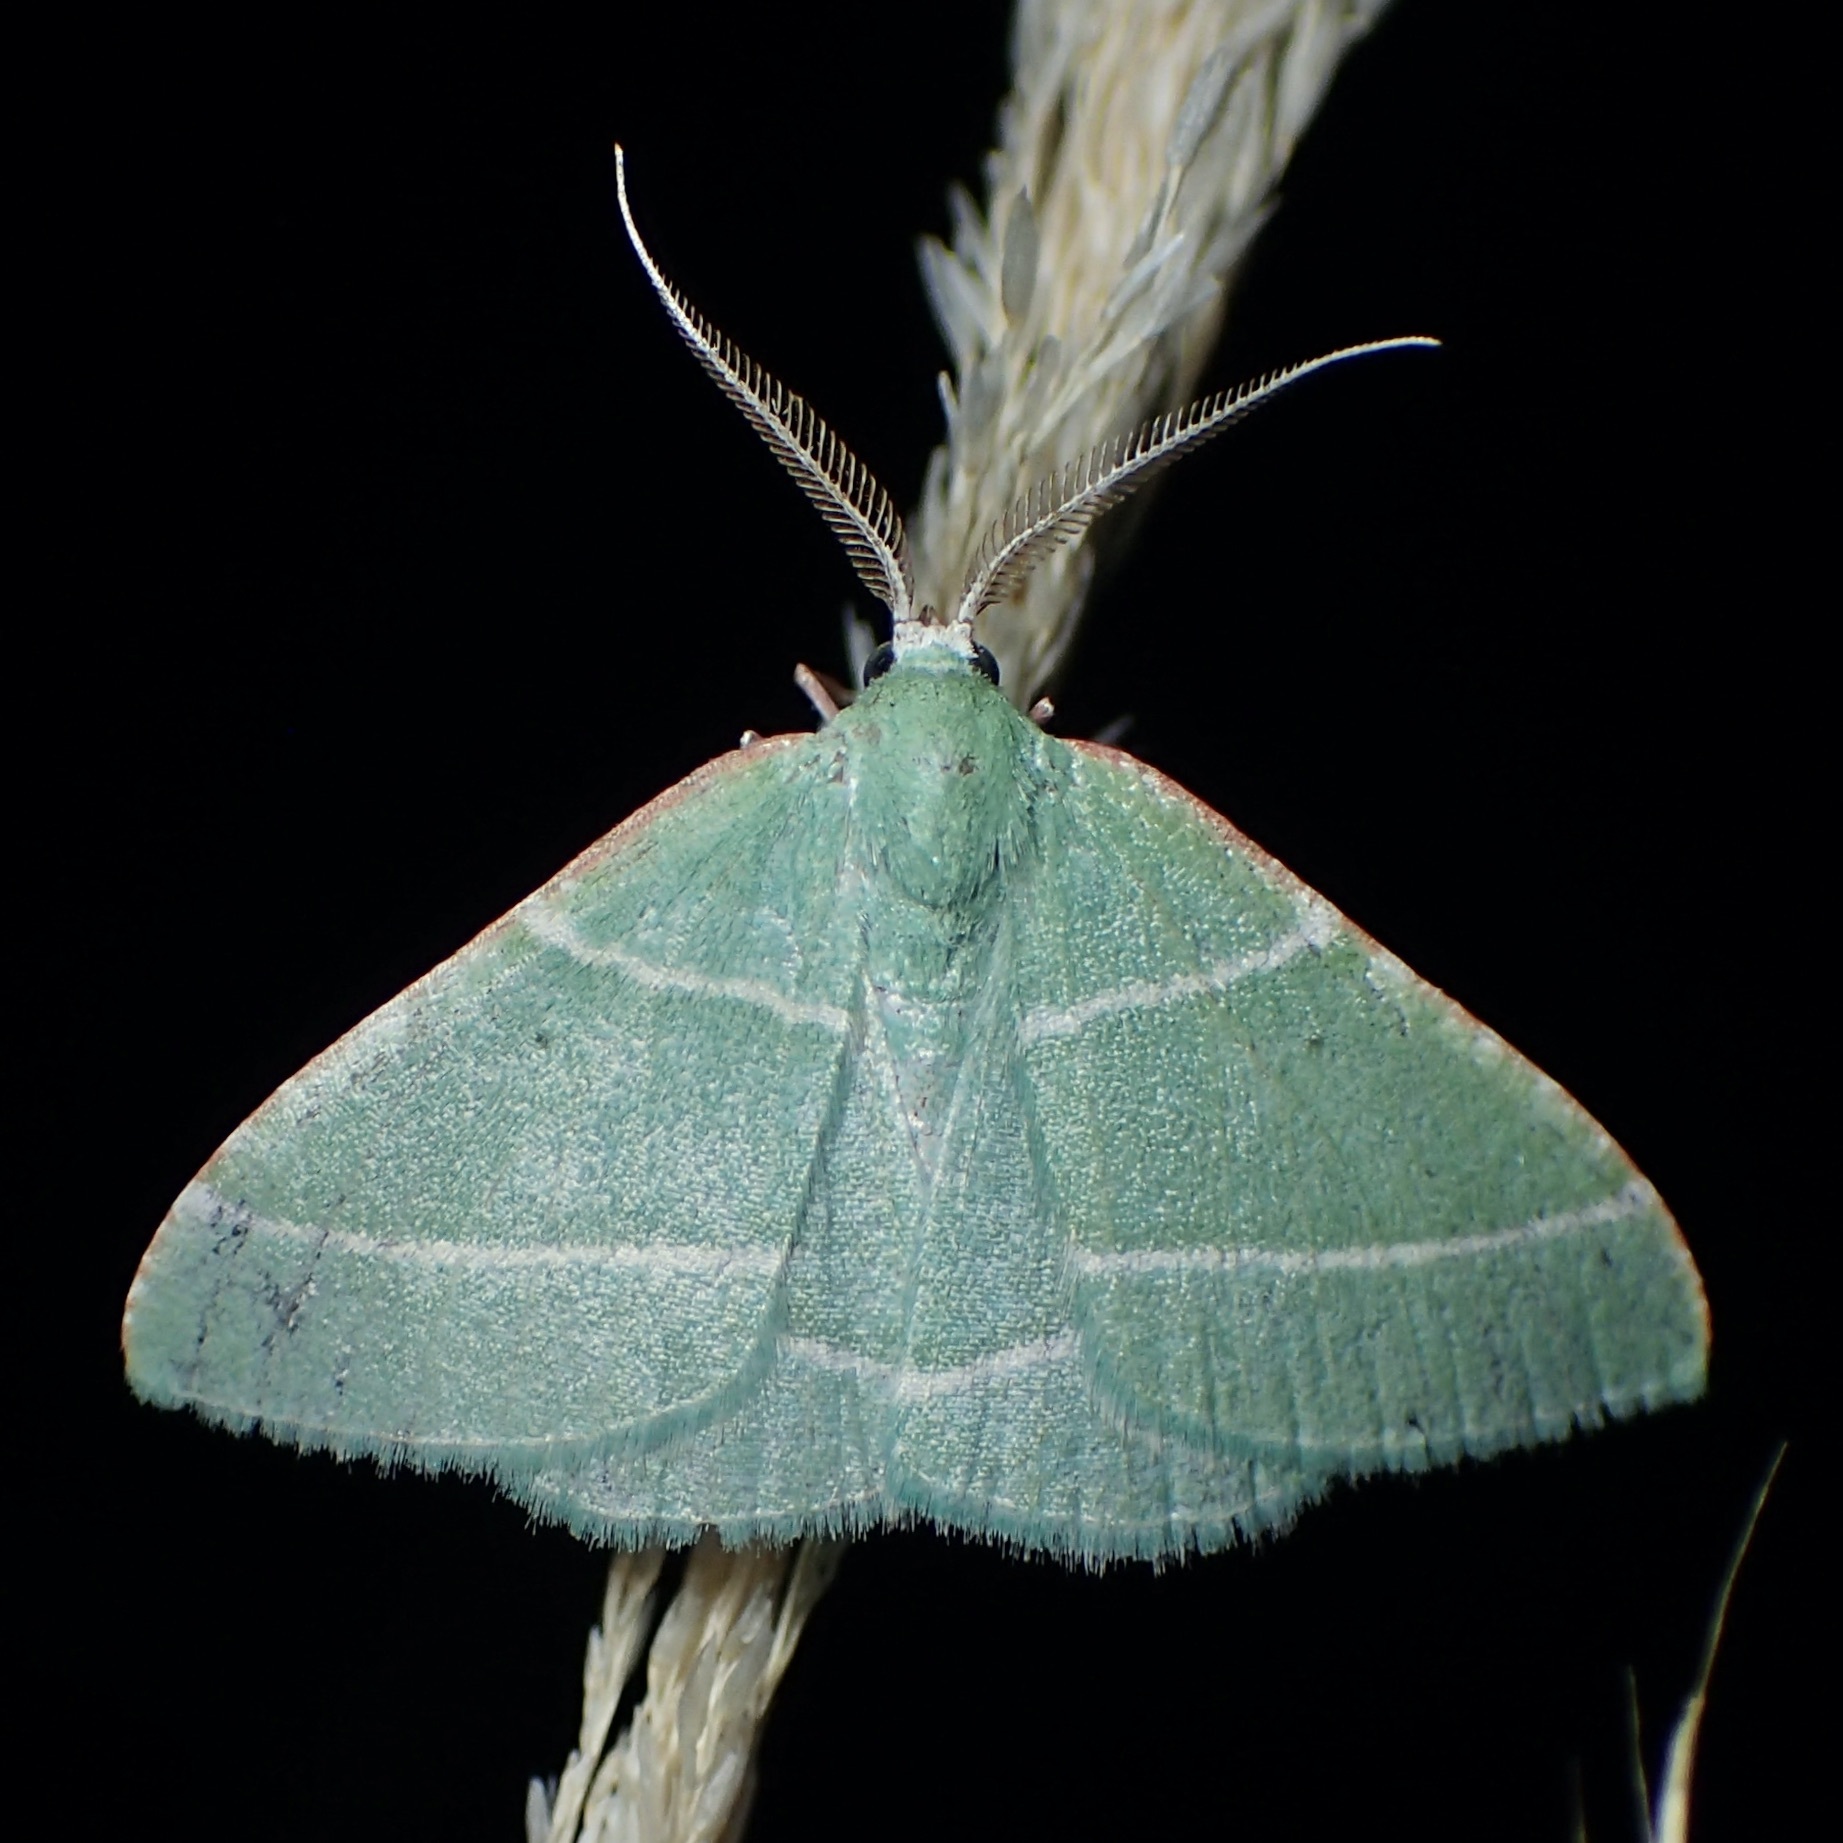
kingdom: Animalia
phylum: Arthropoda
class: Insecta
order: Lepidoptera
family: Geometridae
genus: Dichordophora
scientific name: Dichordophora phoenix
